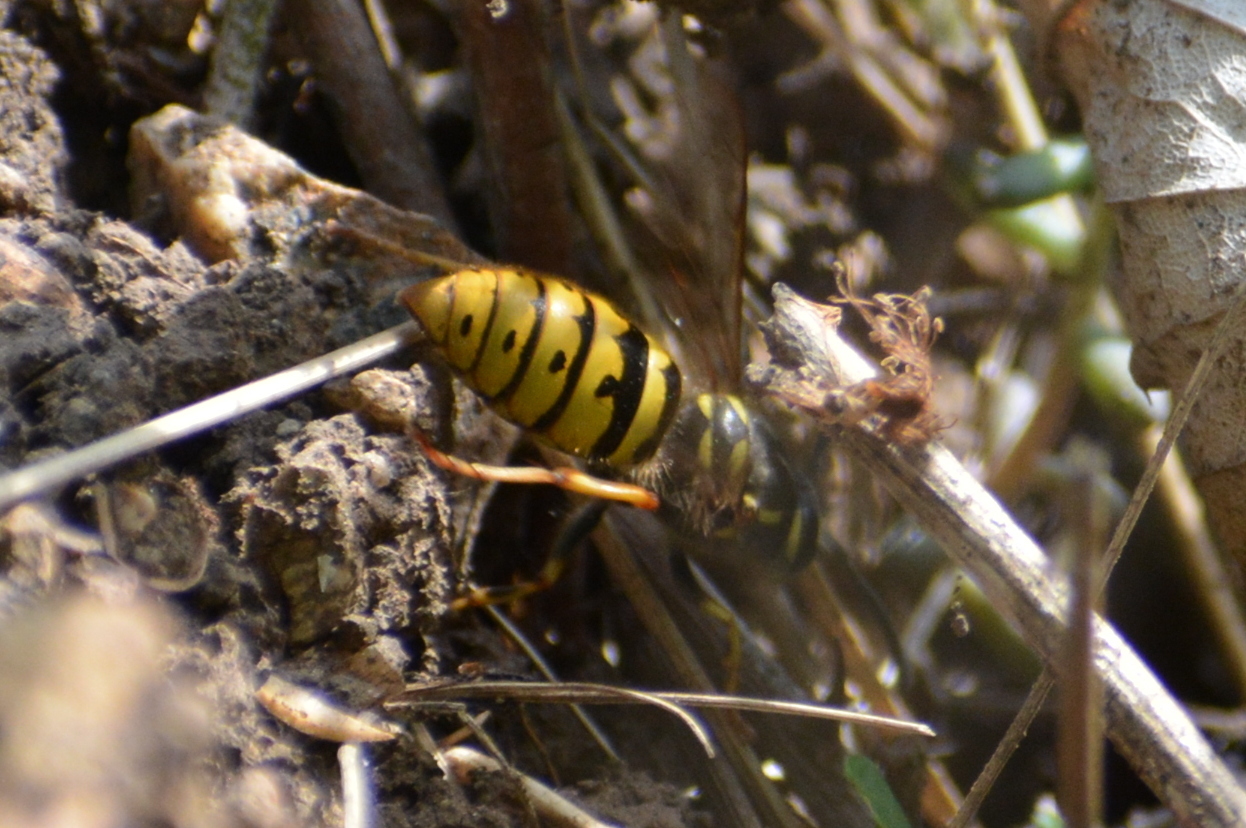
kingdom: Animalia
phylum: Arthropoda
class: Insecta
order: Hymenoptera
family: Vespidae
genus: Vespula
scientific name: Vespula vulgaris
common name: Common wasp
